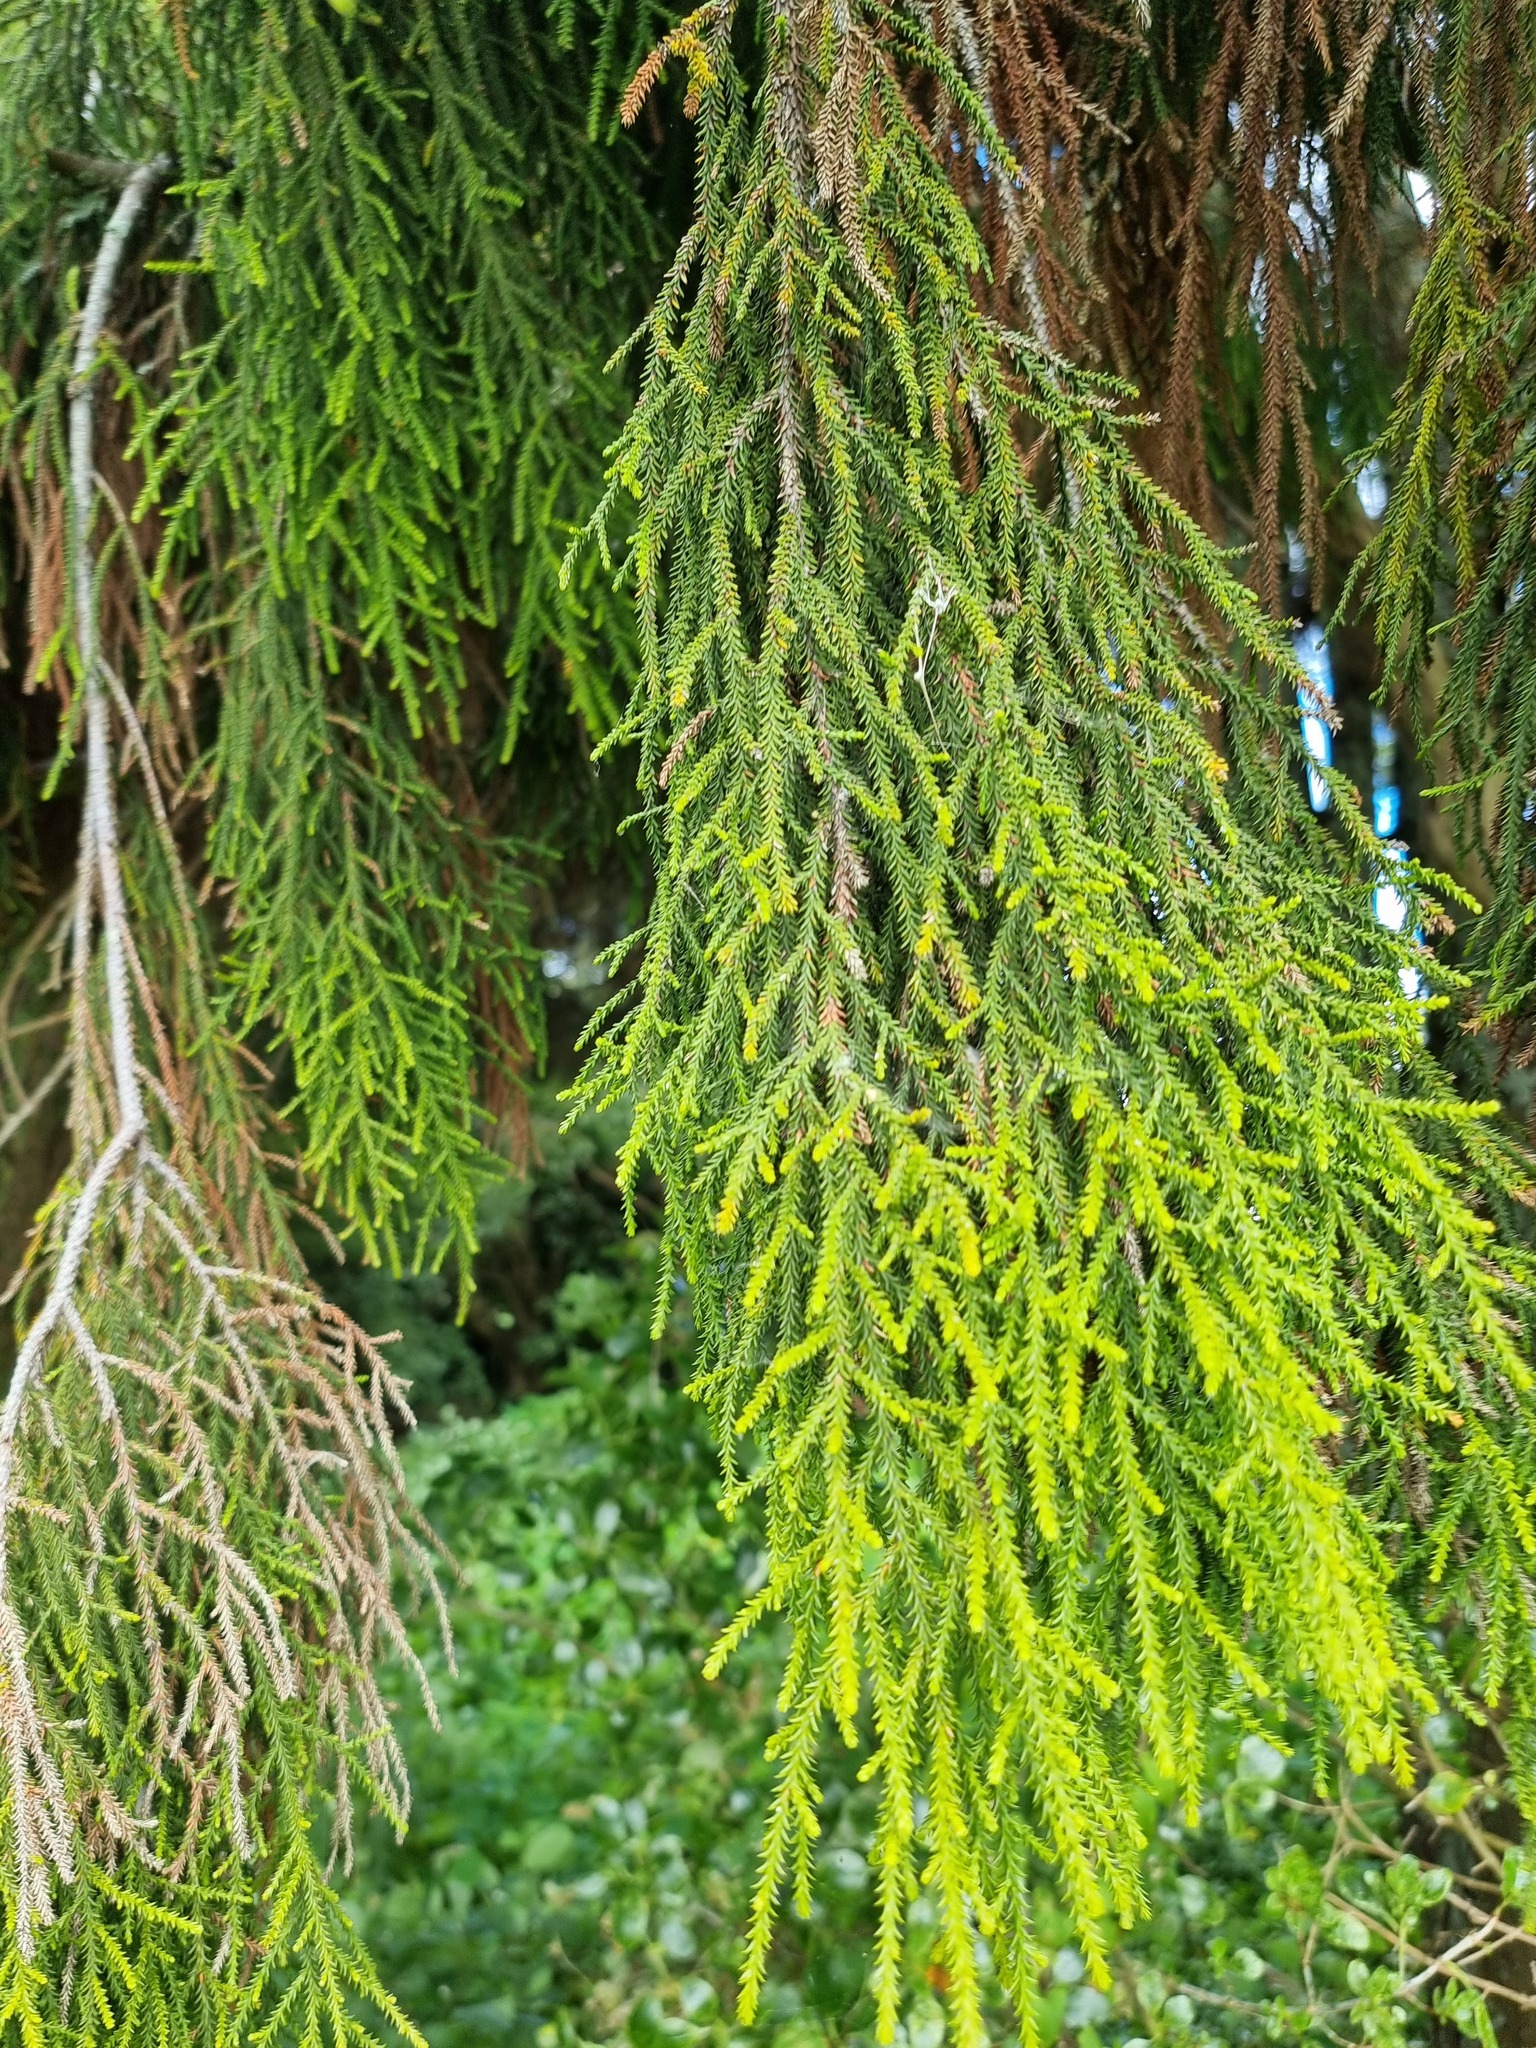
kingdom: Plantae
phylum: Tracheophyta
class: Pinopsida
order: Pinales
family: Podocarpaceae
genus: Dacrydium
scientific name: Dacrydium cupressinum
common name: Red pine
